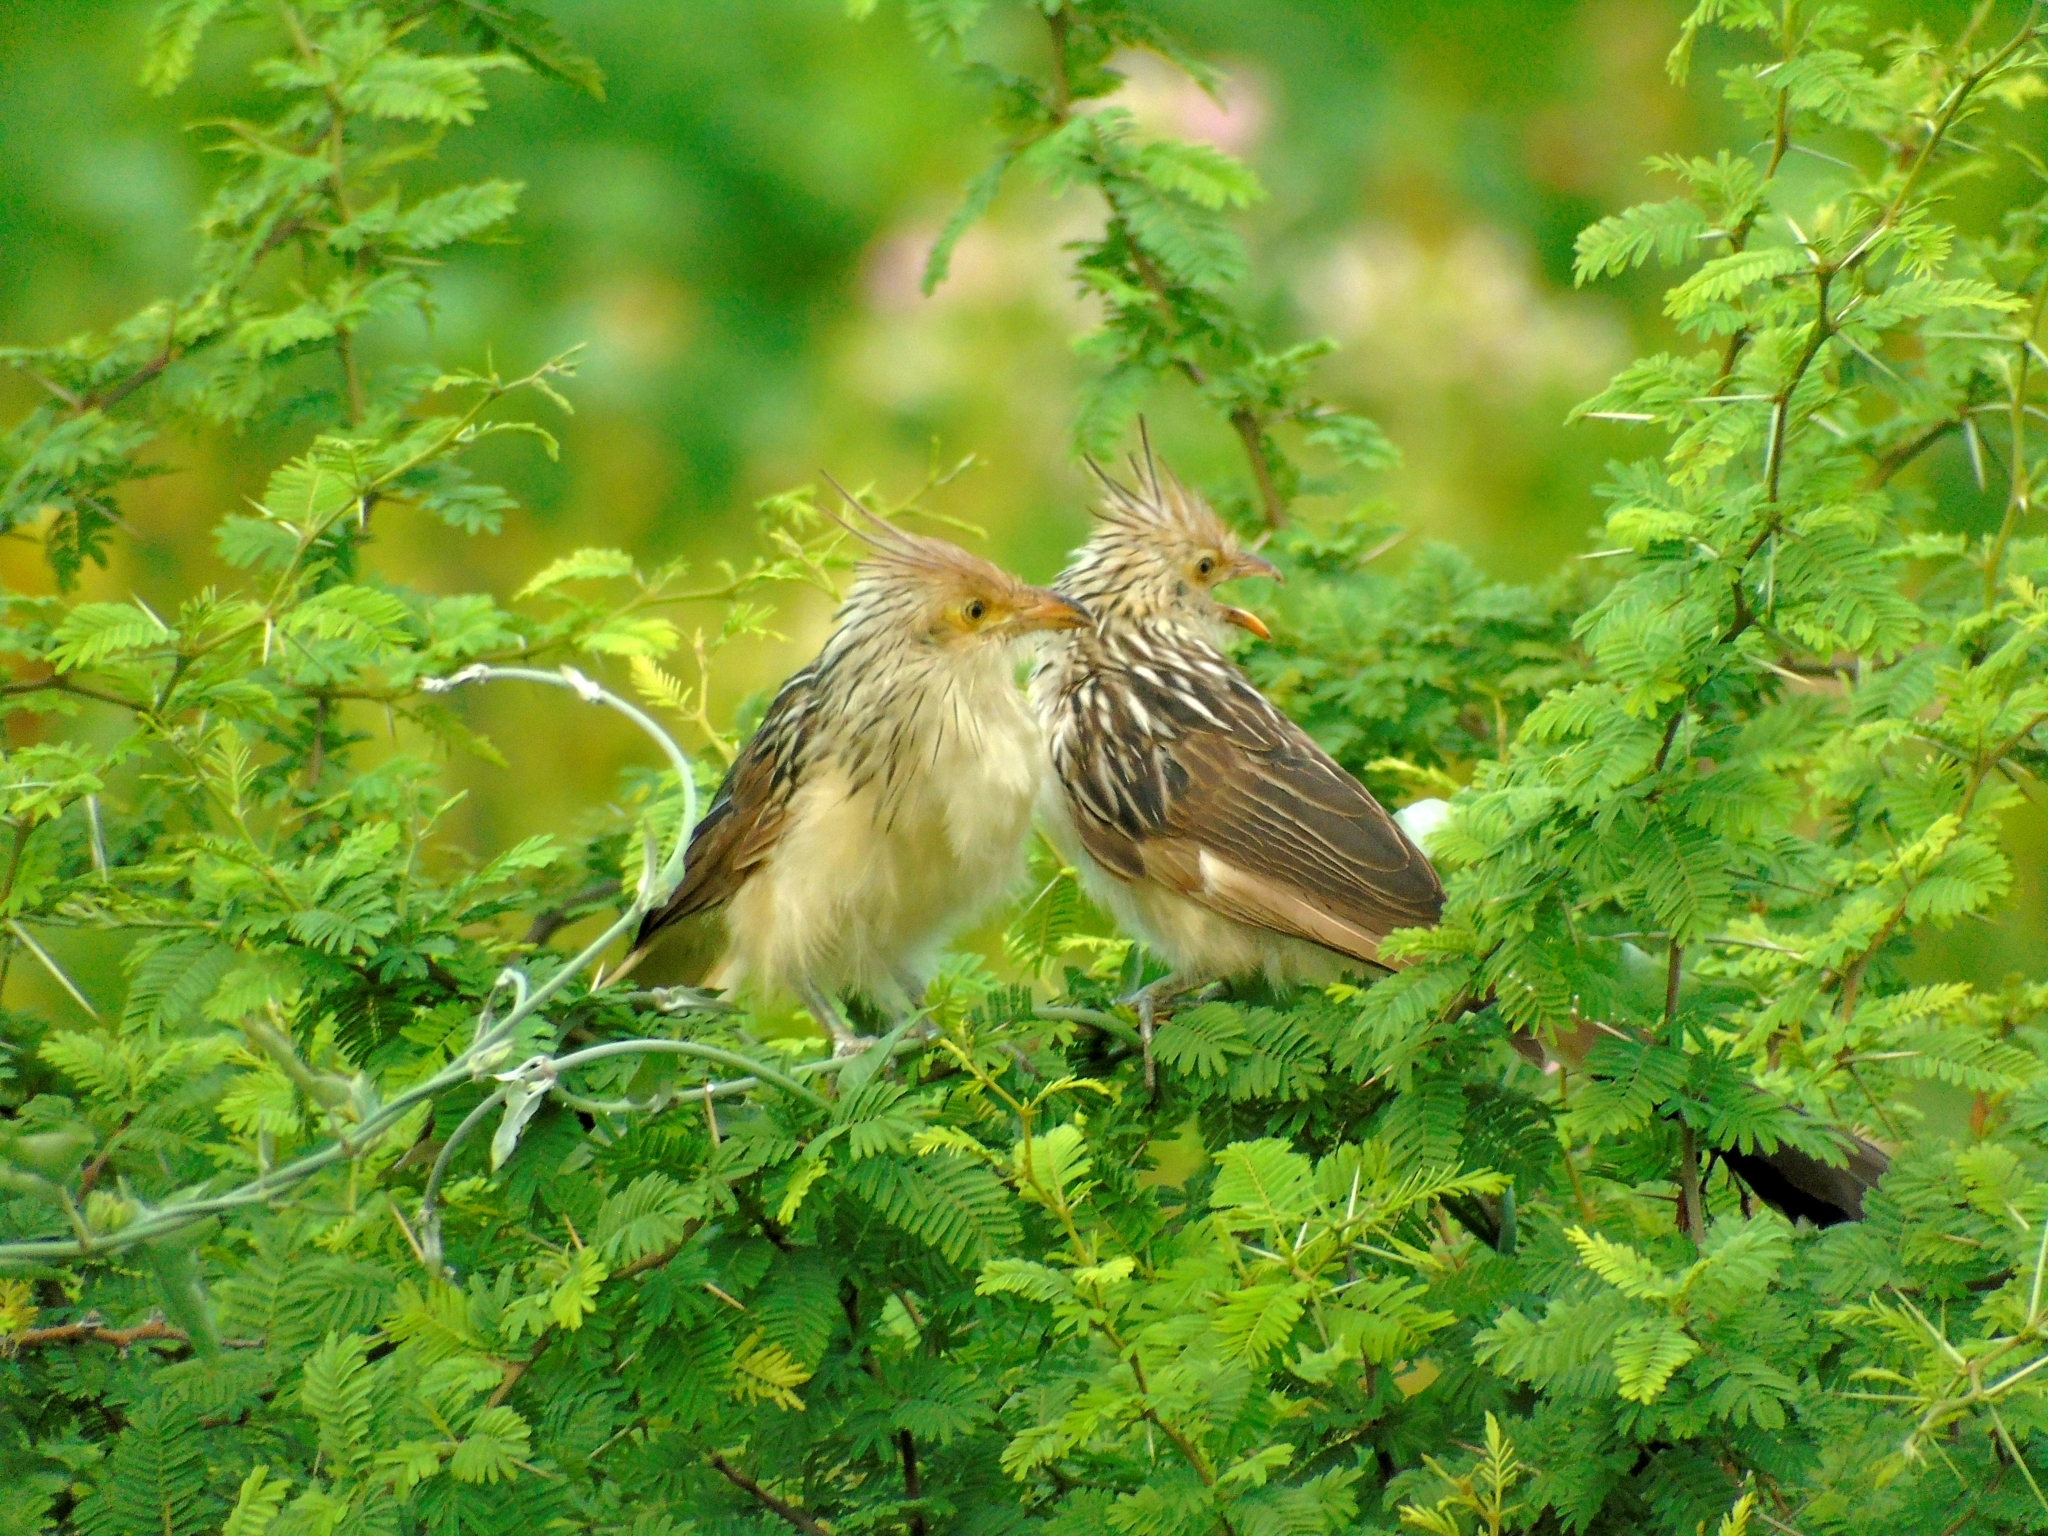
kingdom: Animalia
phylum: Chordata
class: Aves
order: Cuculiformes
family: Cuculidae
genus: Guira
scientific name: Guira guira
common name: Guira cuckoo
